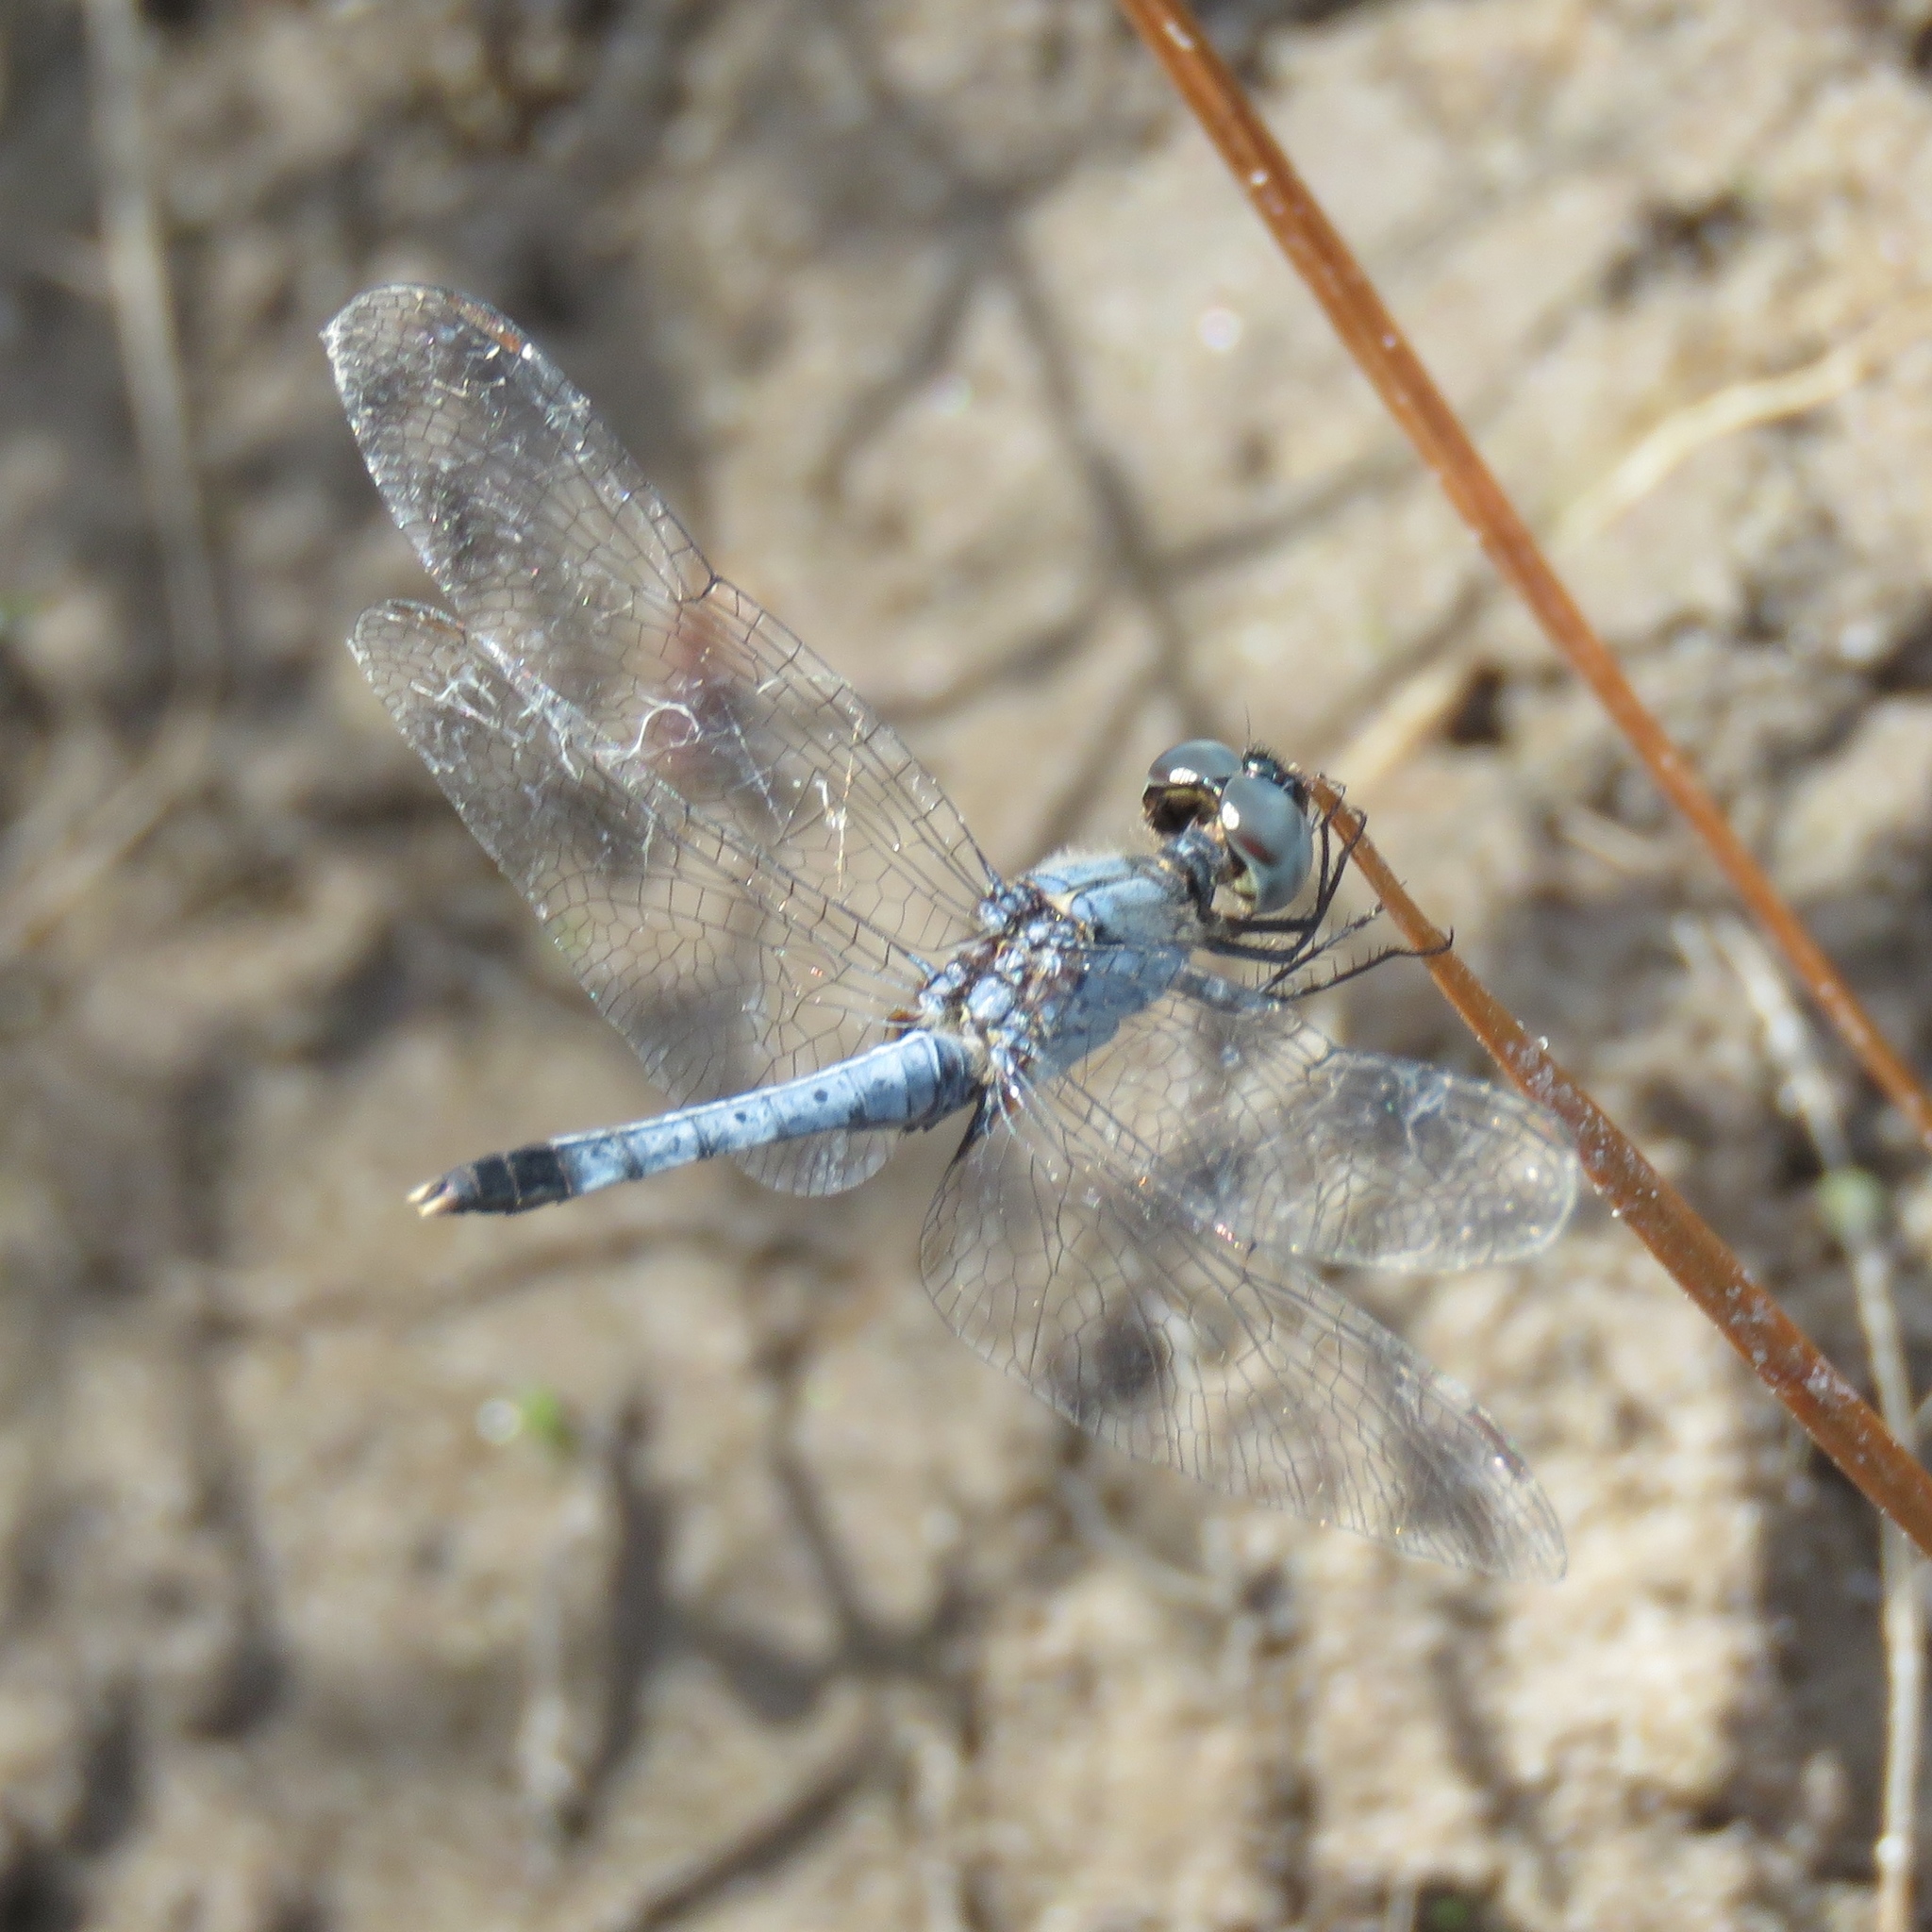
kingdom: Animalia
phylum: Arthropoda
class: Insecta
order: Odonata
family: Libellulidae
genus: Erythrodiplax
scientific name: Erythrodiplax minuscula
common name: Little blue dragonlet
